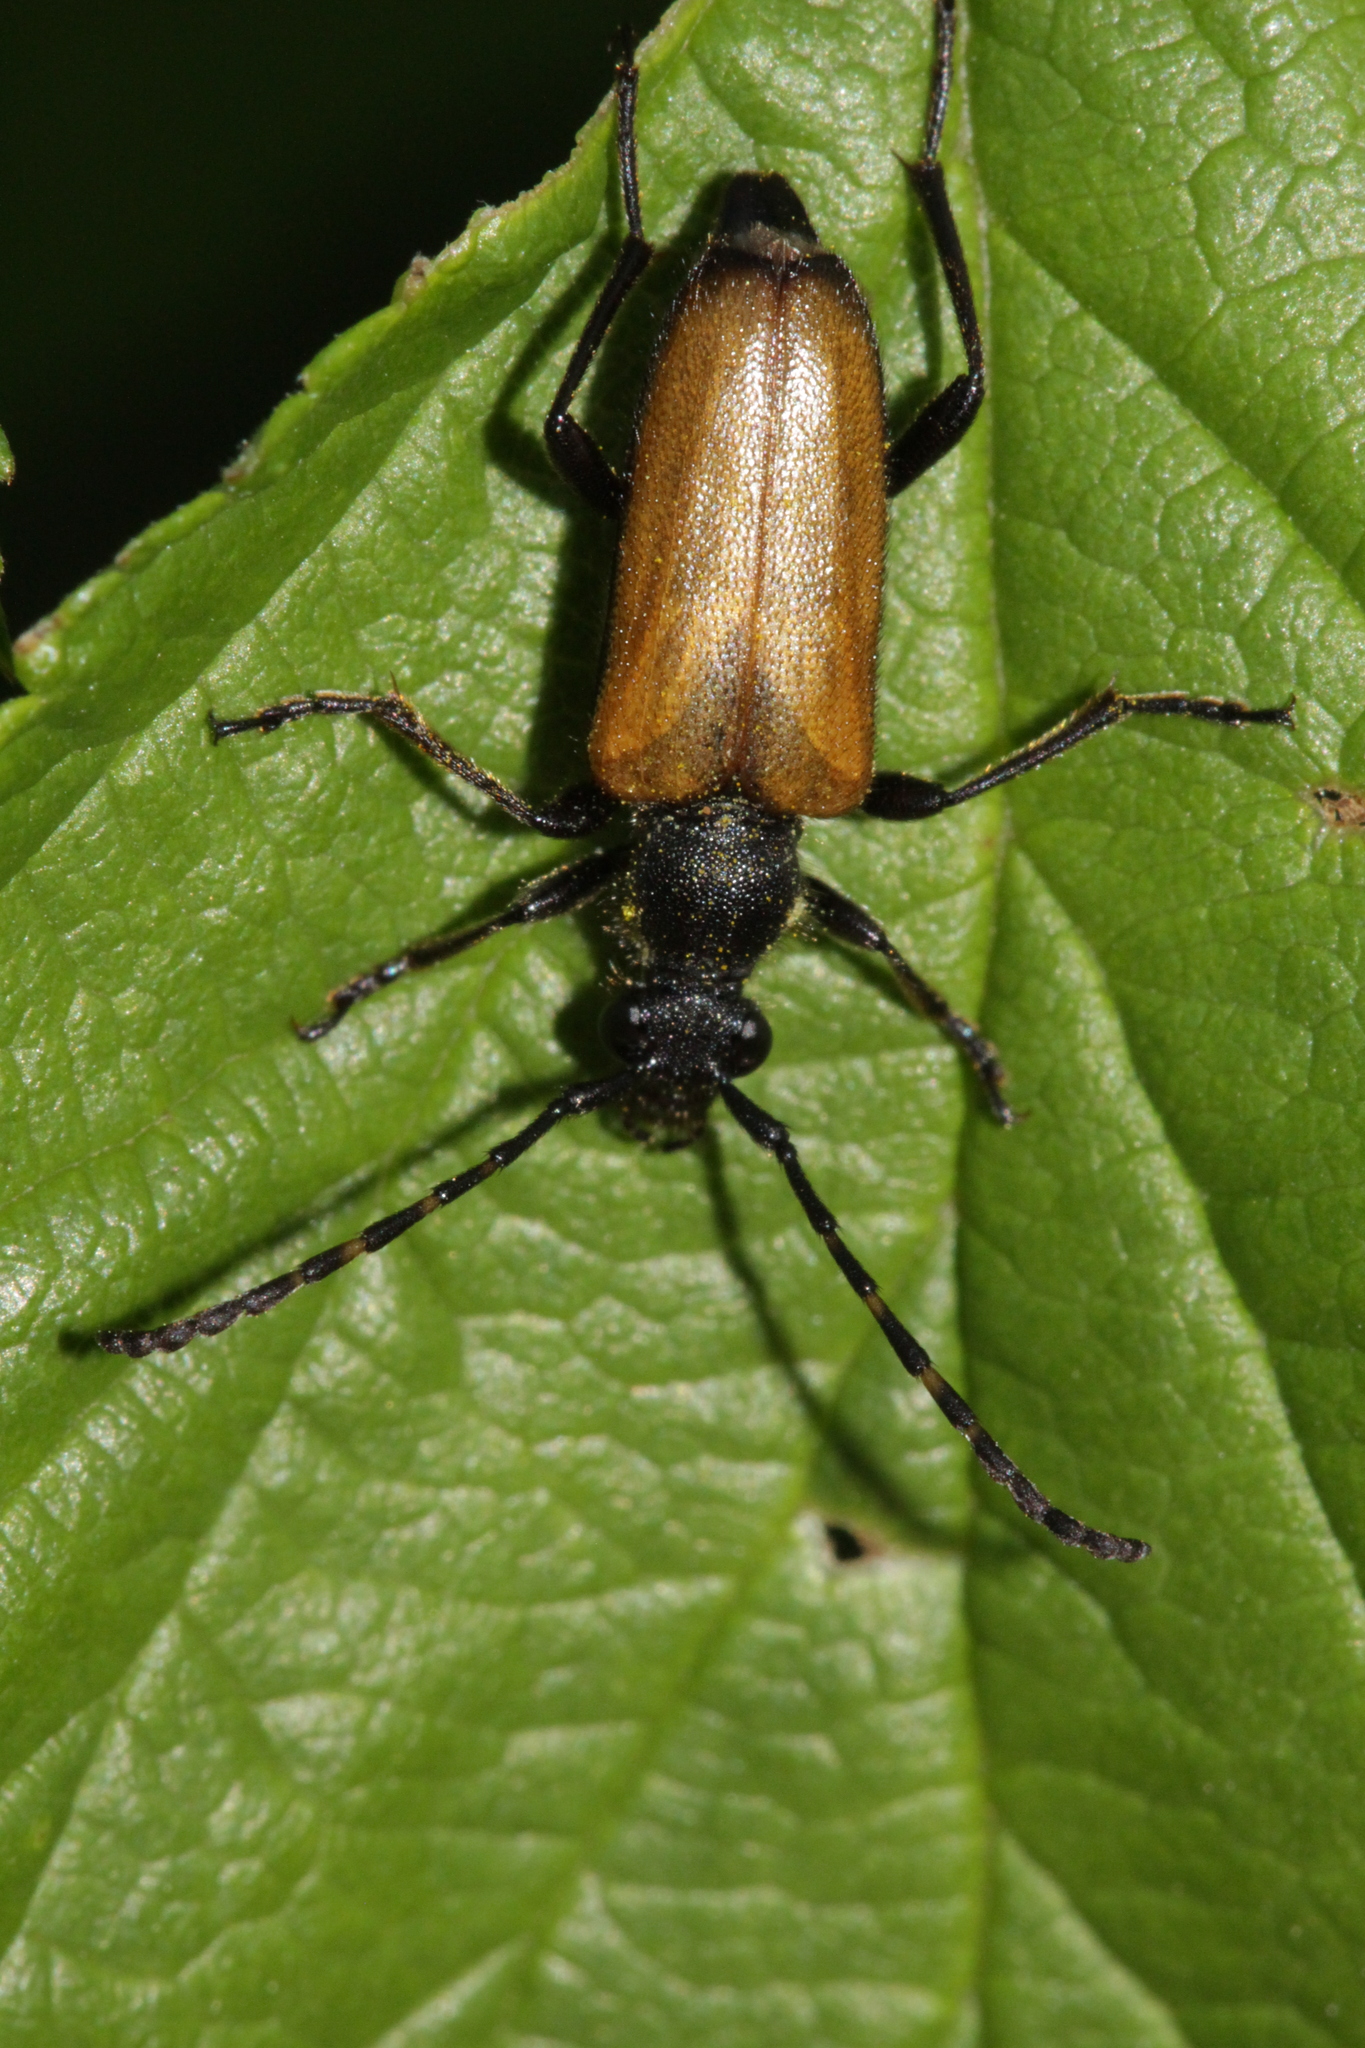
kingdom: Animalia
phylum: Arthropoda
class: Insecta
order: Coleoptera
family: Cerambycidae
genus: Paracorymbia
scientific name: Paracorymbia maculicornis
